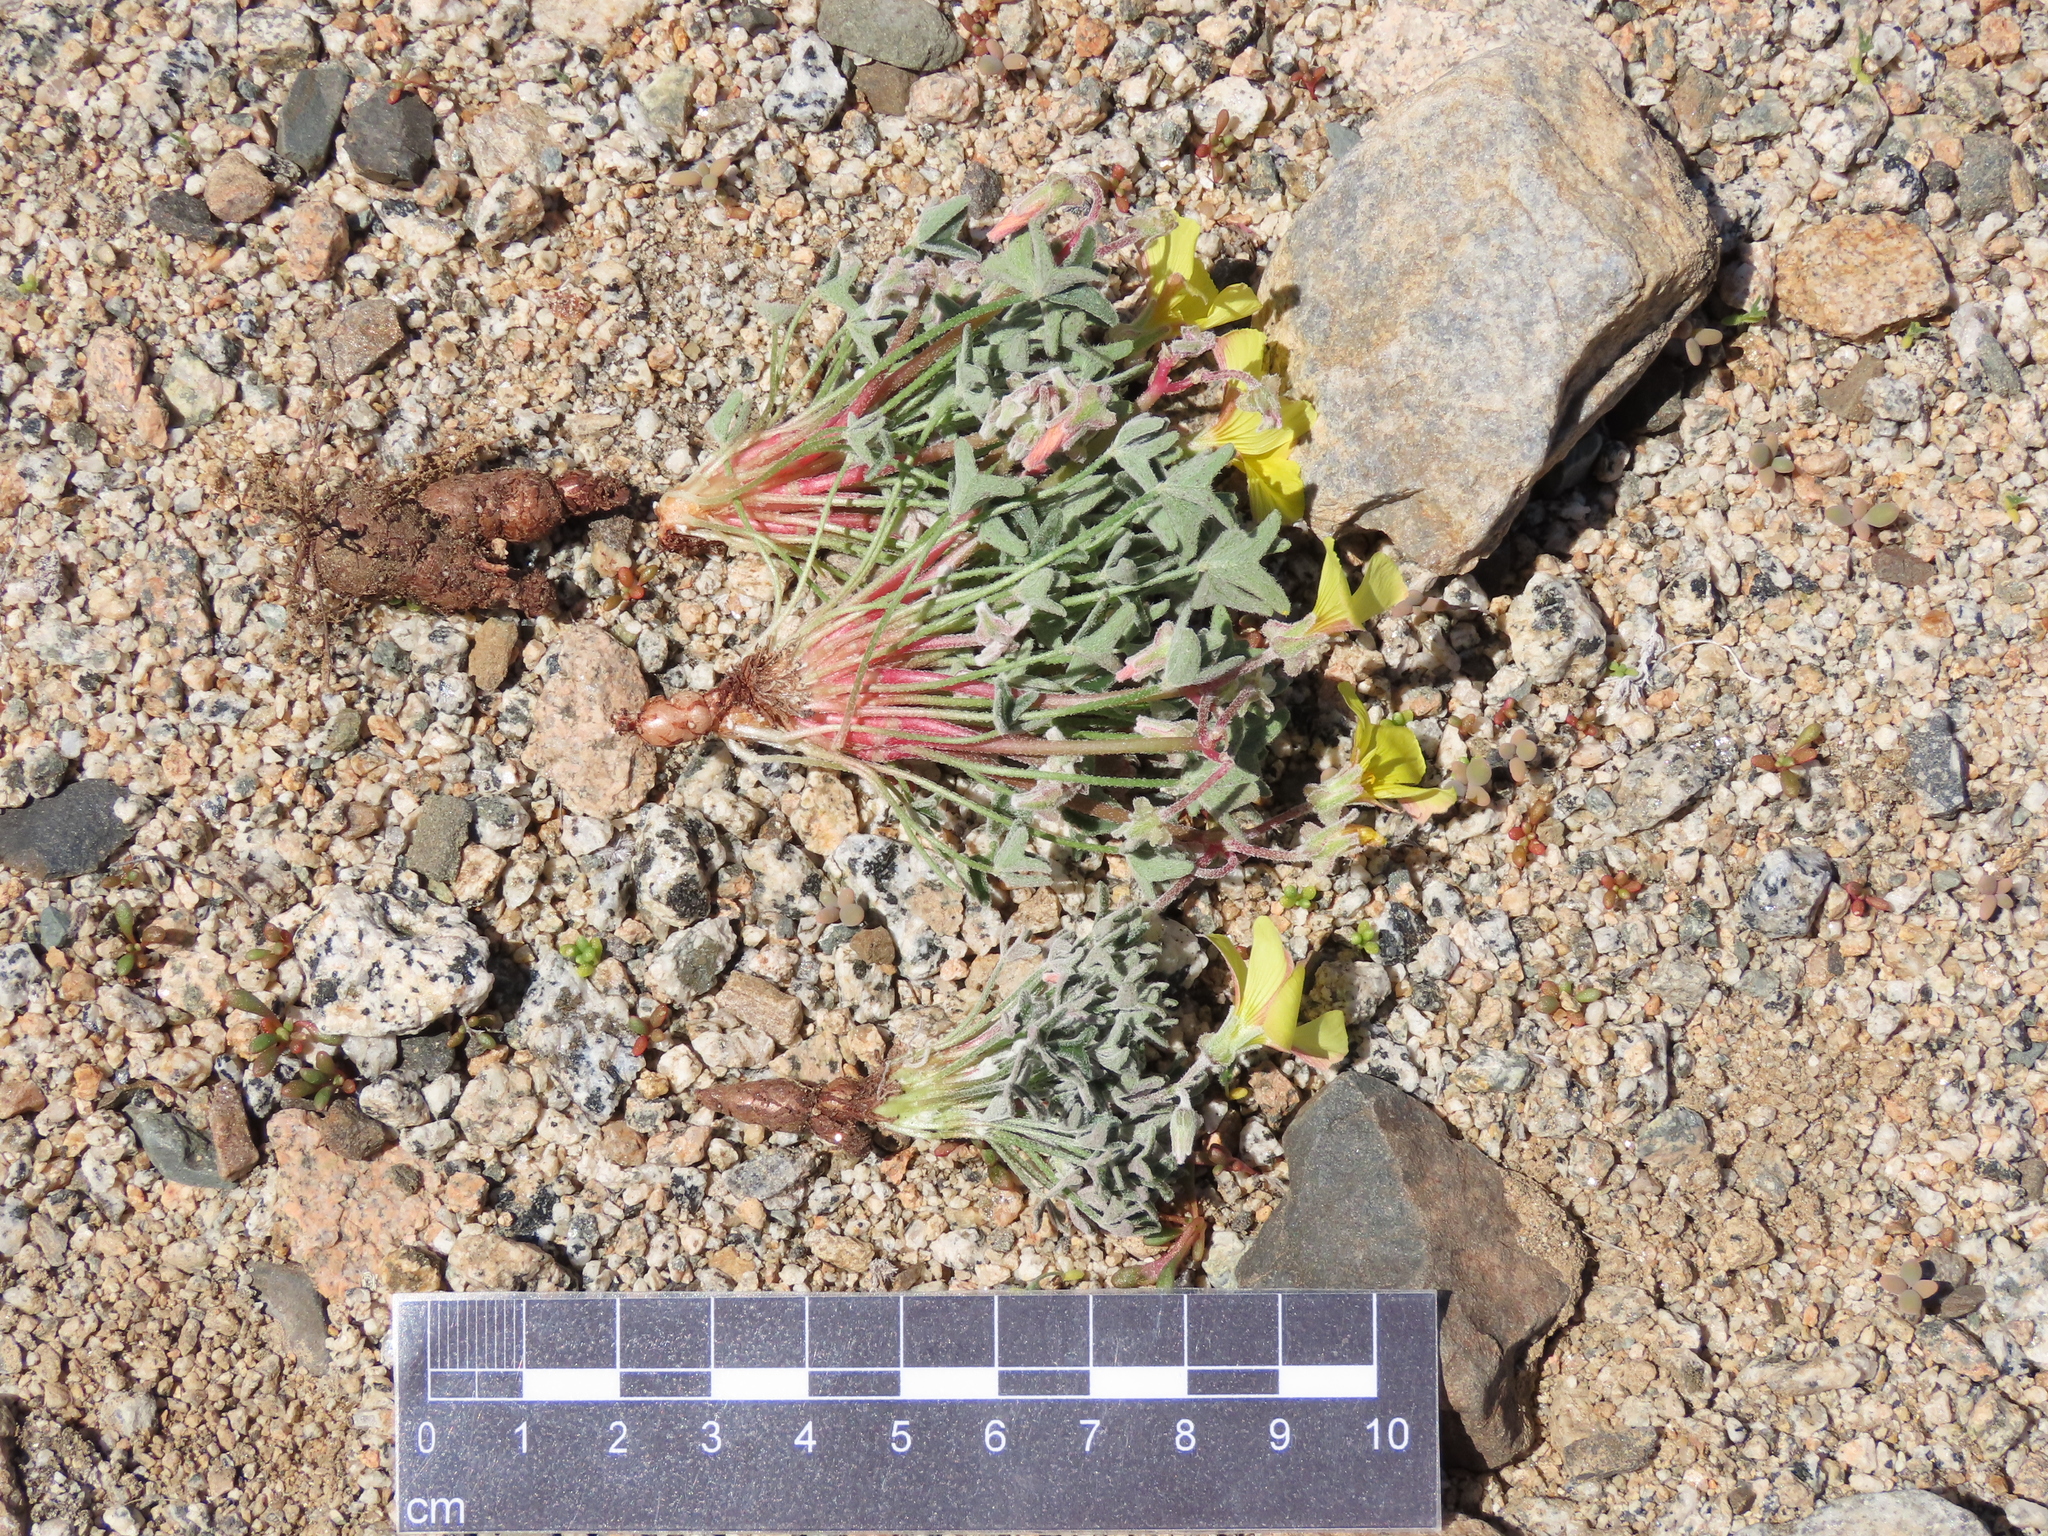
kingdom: Plantae
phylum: Tracheophyta
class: Magnoliopsida
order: Oxalidales
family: Oxalidaceae
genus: Oxalis
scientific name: Oxalis leucophylla
